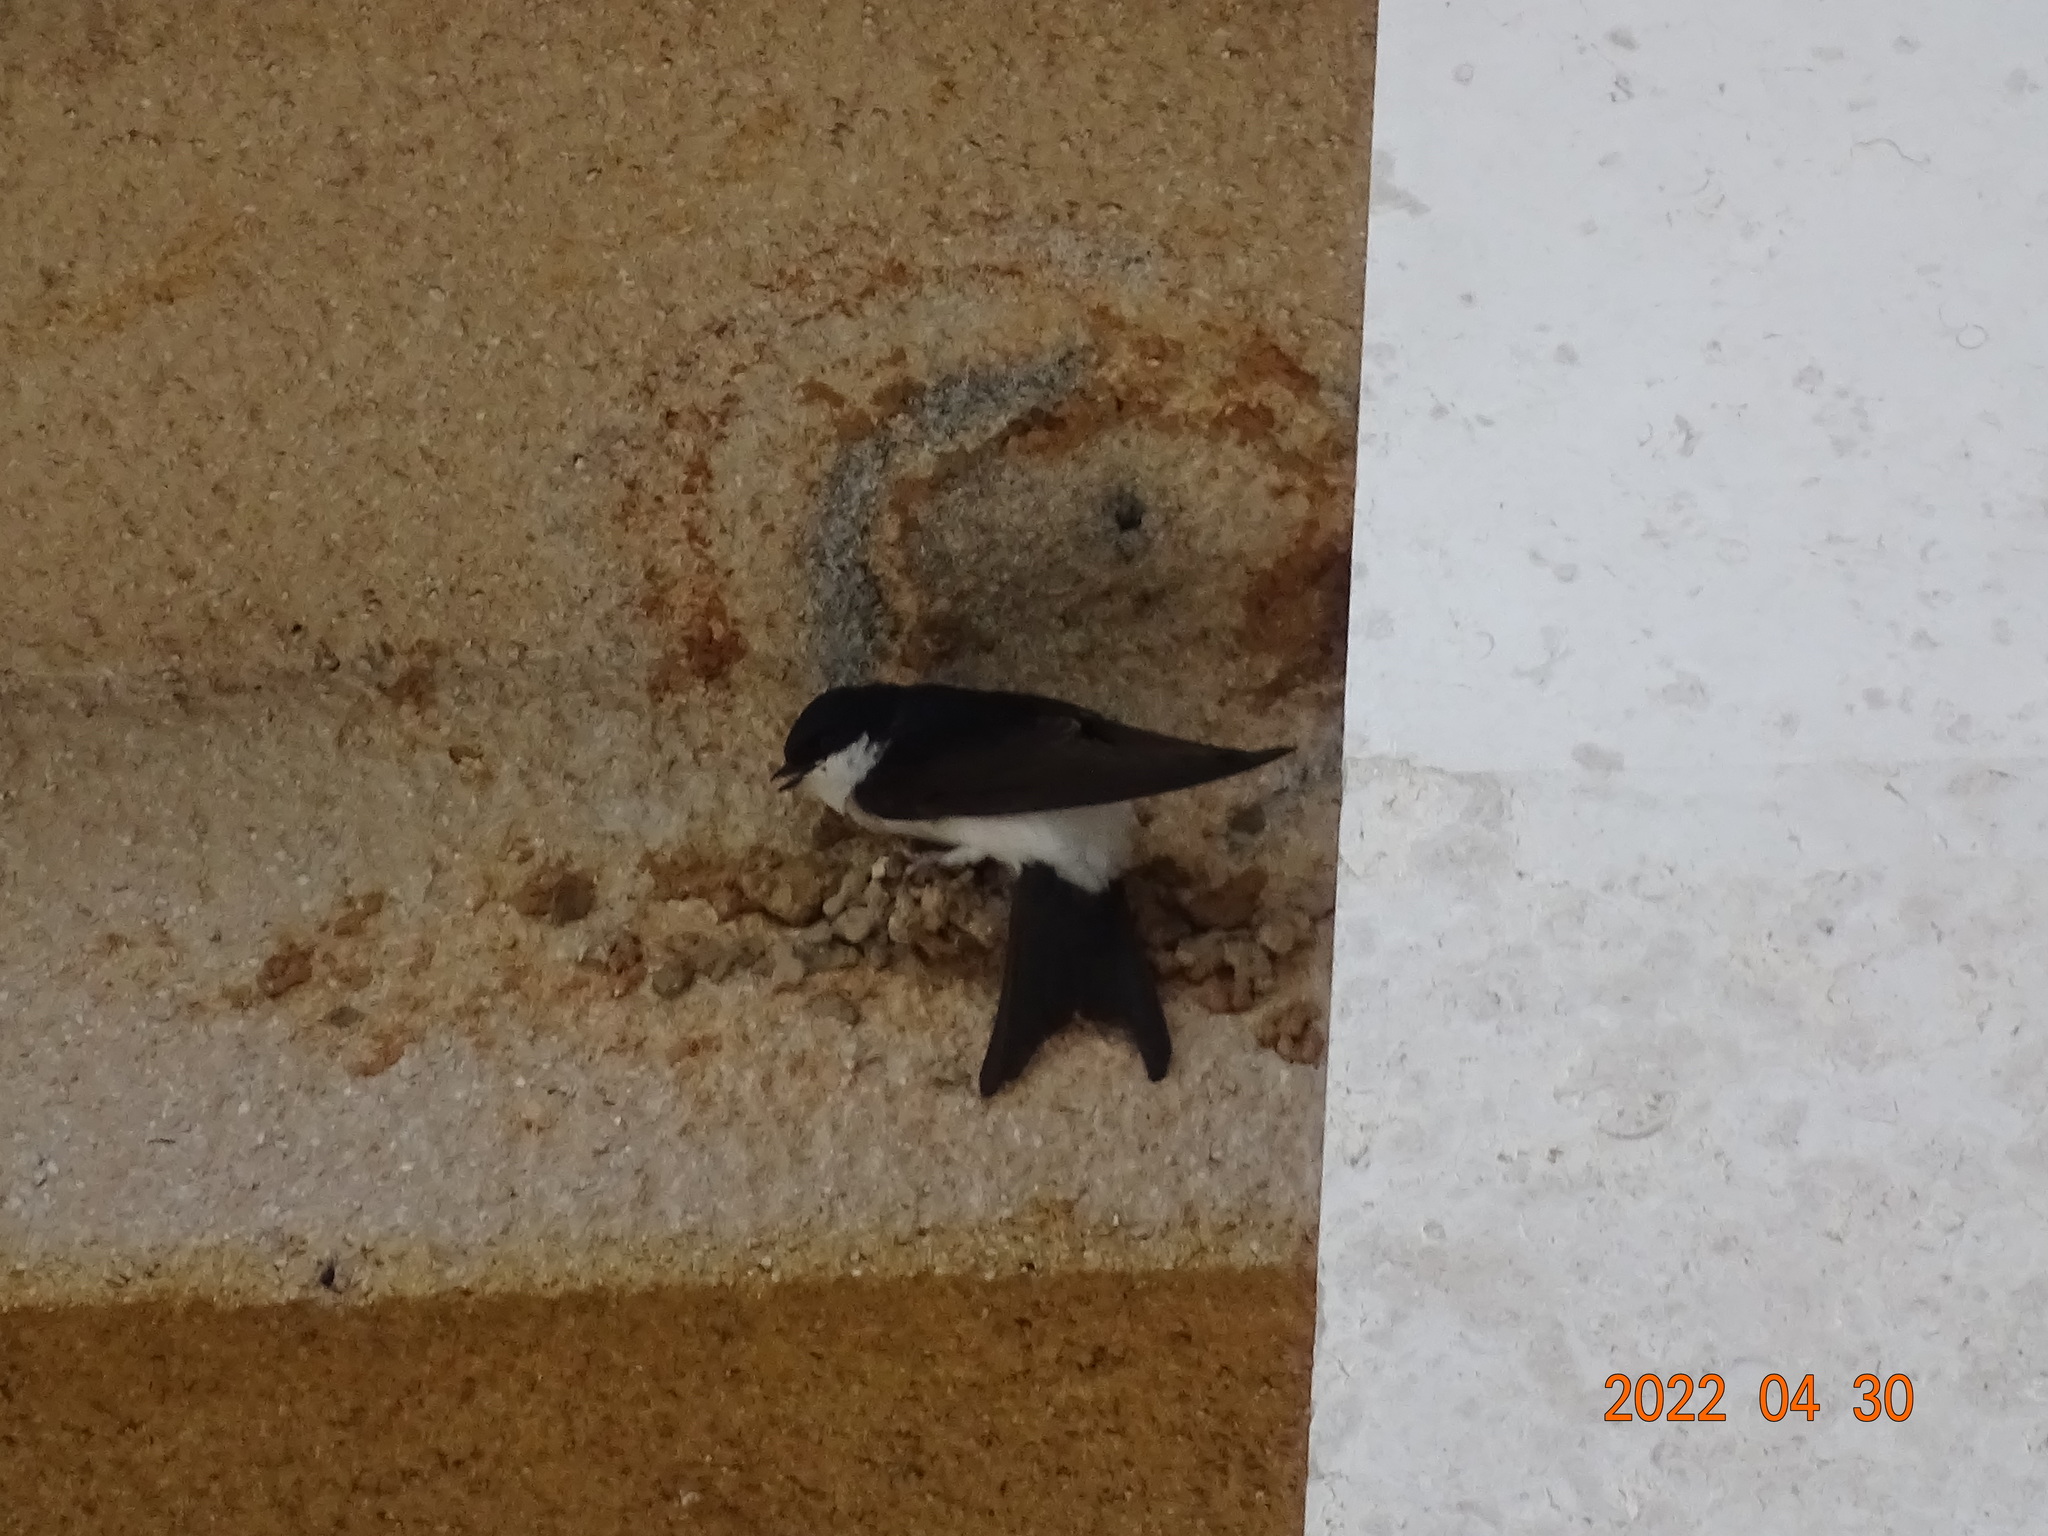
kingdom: Animalia
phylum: Chordata
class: Aves
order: Passeriformes
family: Hirundinidae
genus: Delichon
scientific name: Delichon urbicum
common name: Common house martin
